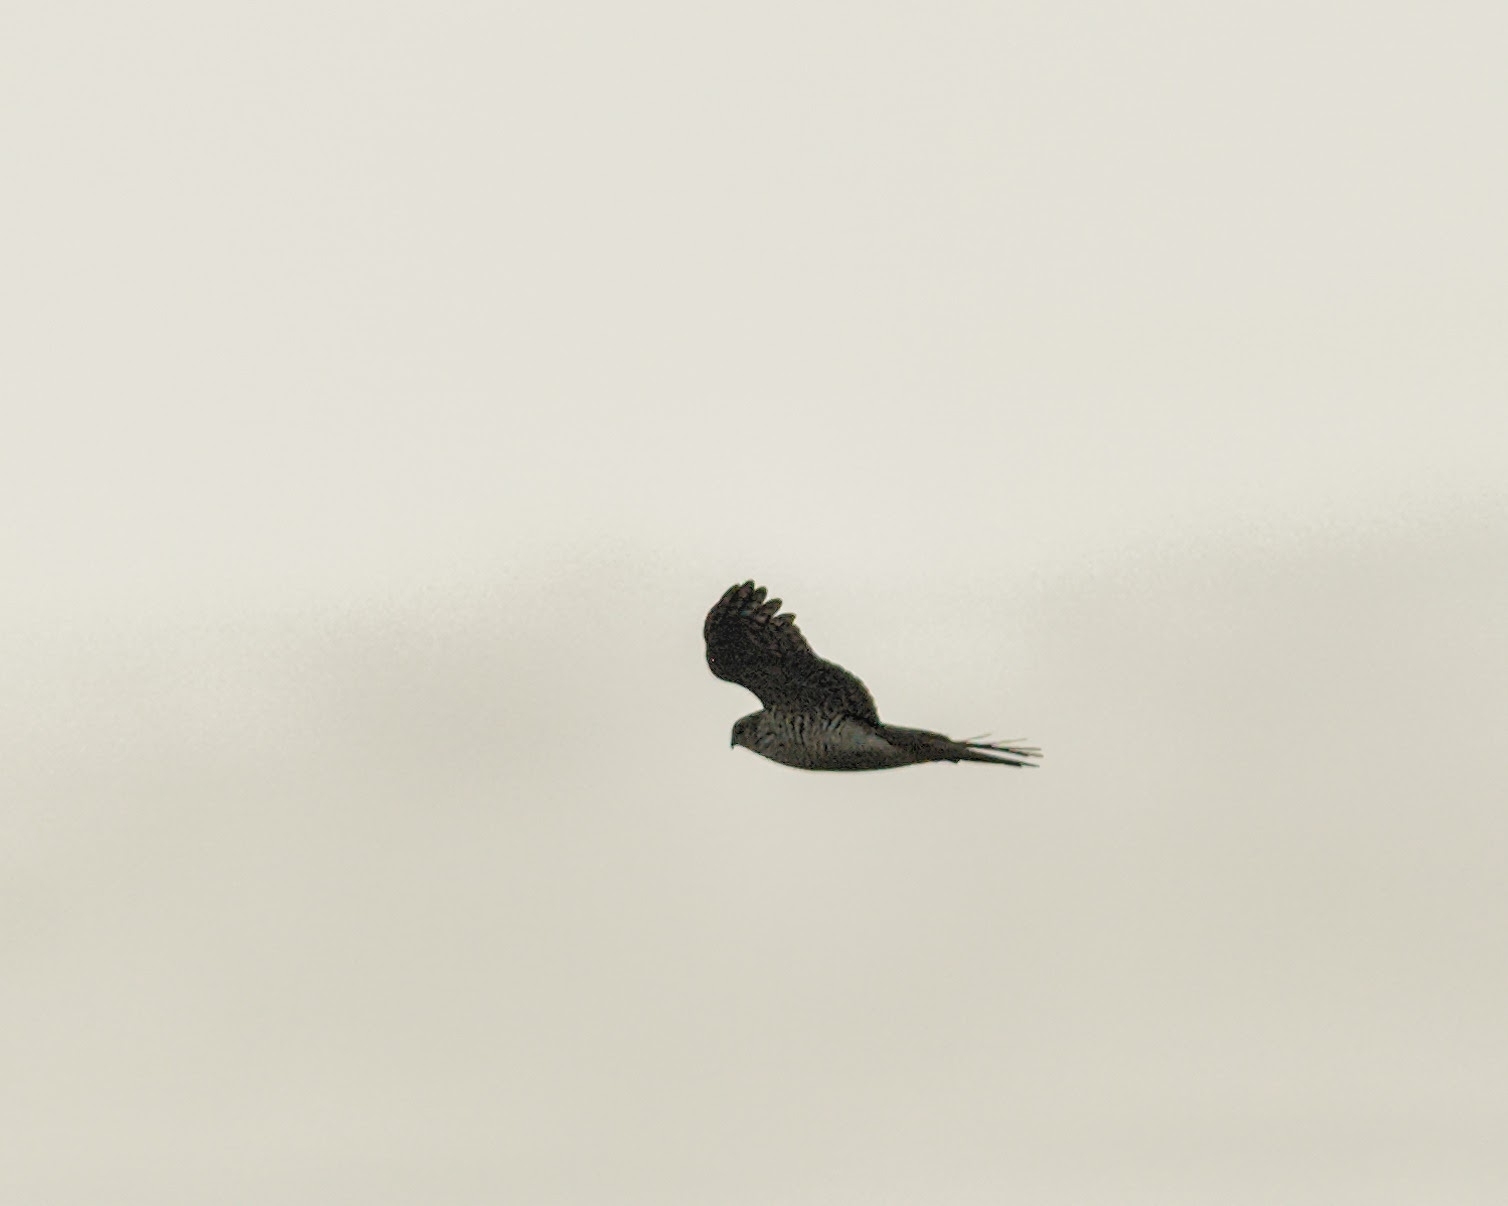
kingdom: Animalia
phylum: Chordata
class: Aves
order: Accipitriformes
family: Accipitridae
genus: Accipiter
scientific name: Accipiter nisus
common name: Eurasian sparrowhawk
